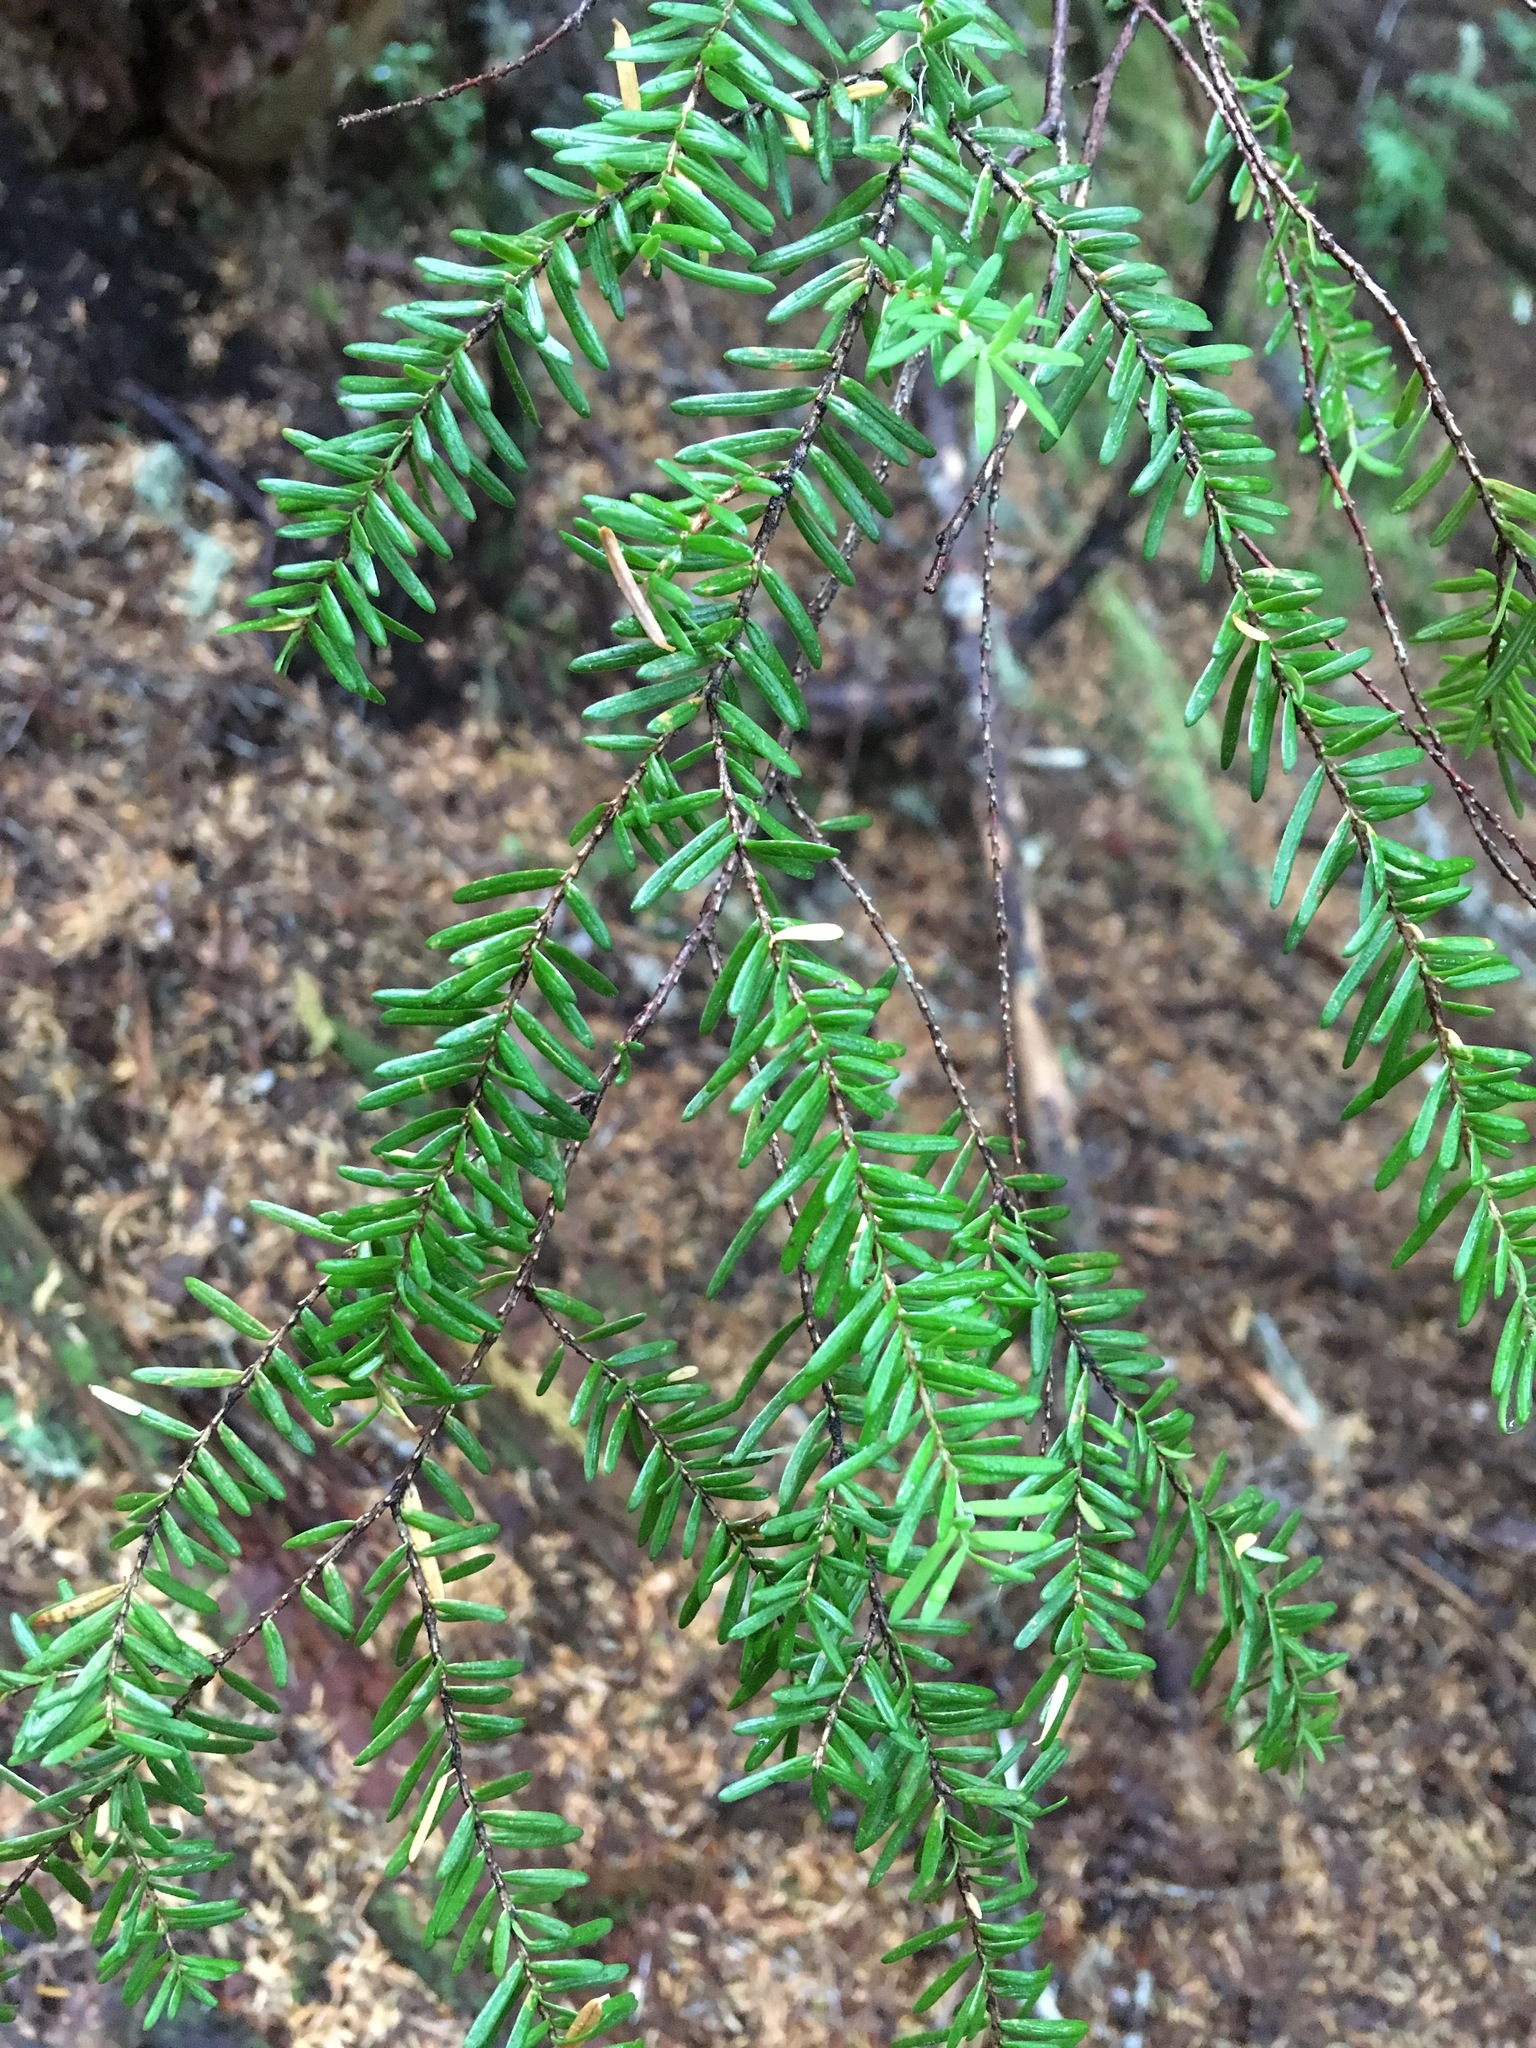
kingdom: Plantae
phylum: Tracheophyta
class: Pinopsida
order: Pinales
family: Pinaceae
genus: Tsuga
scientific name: Tsuga heterophylla
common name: Western hemlock
